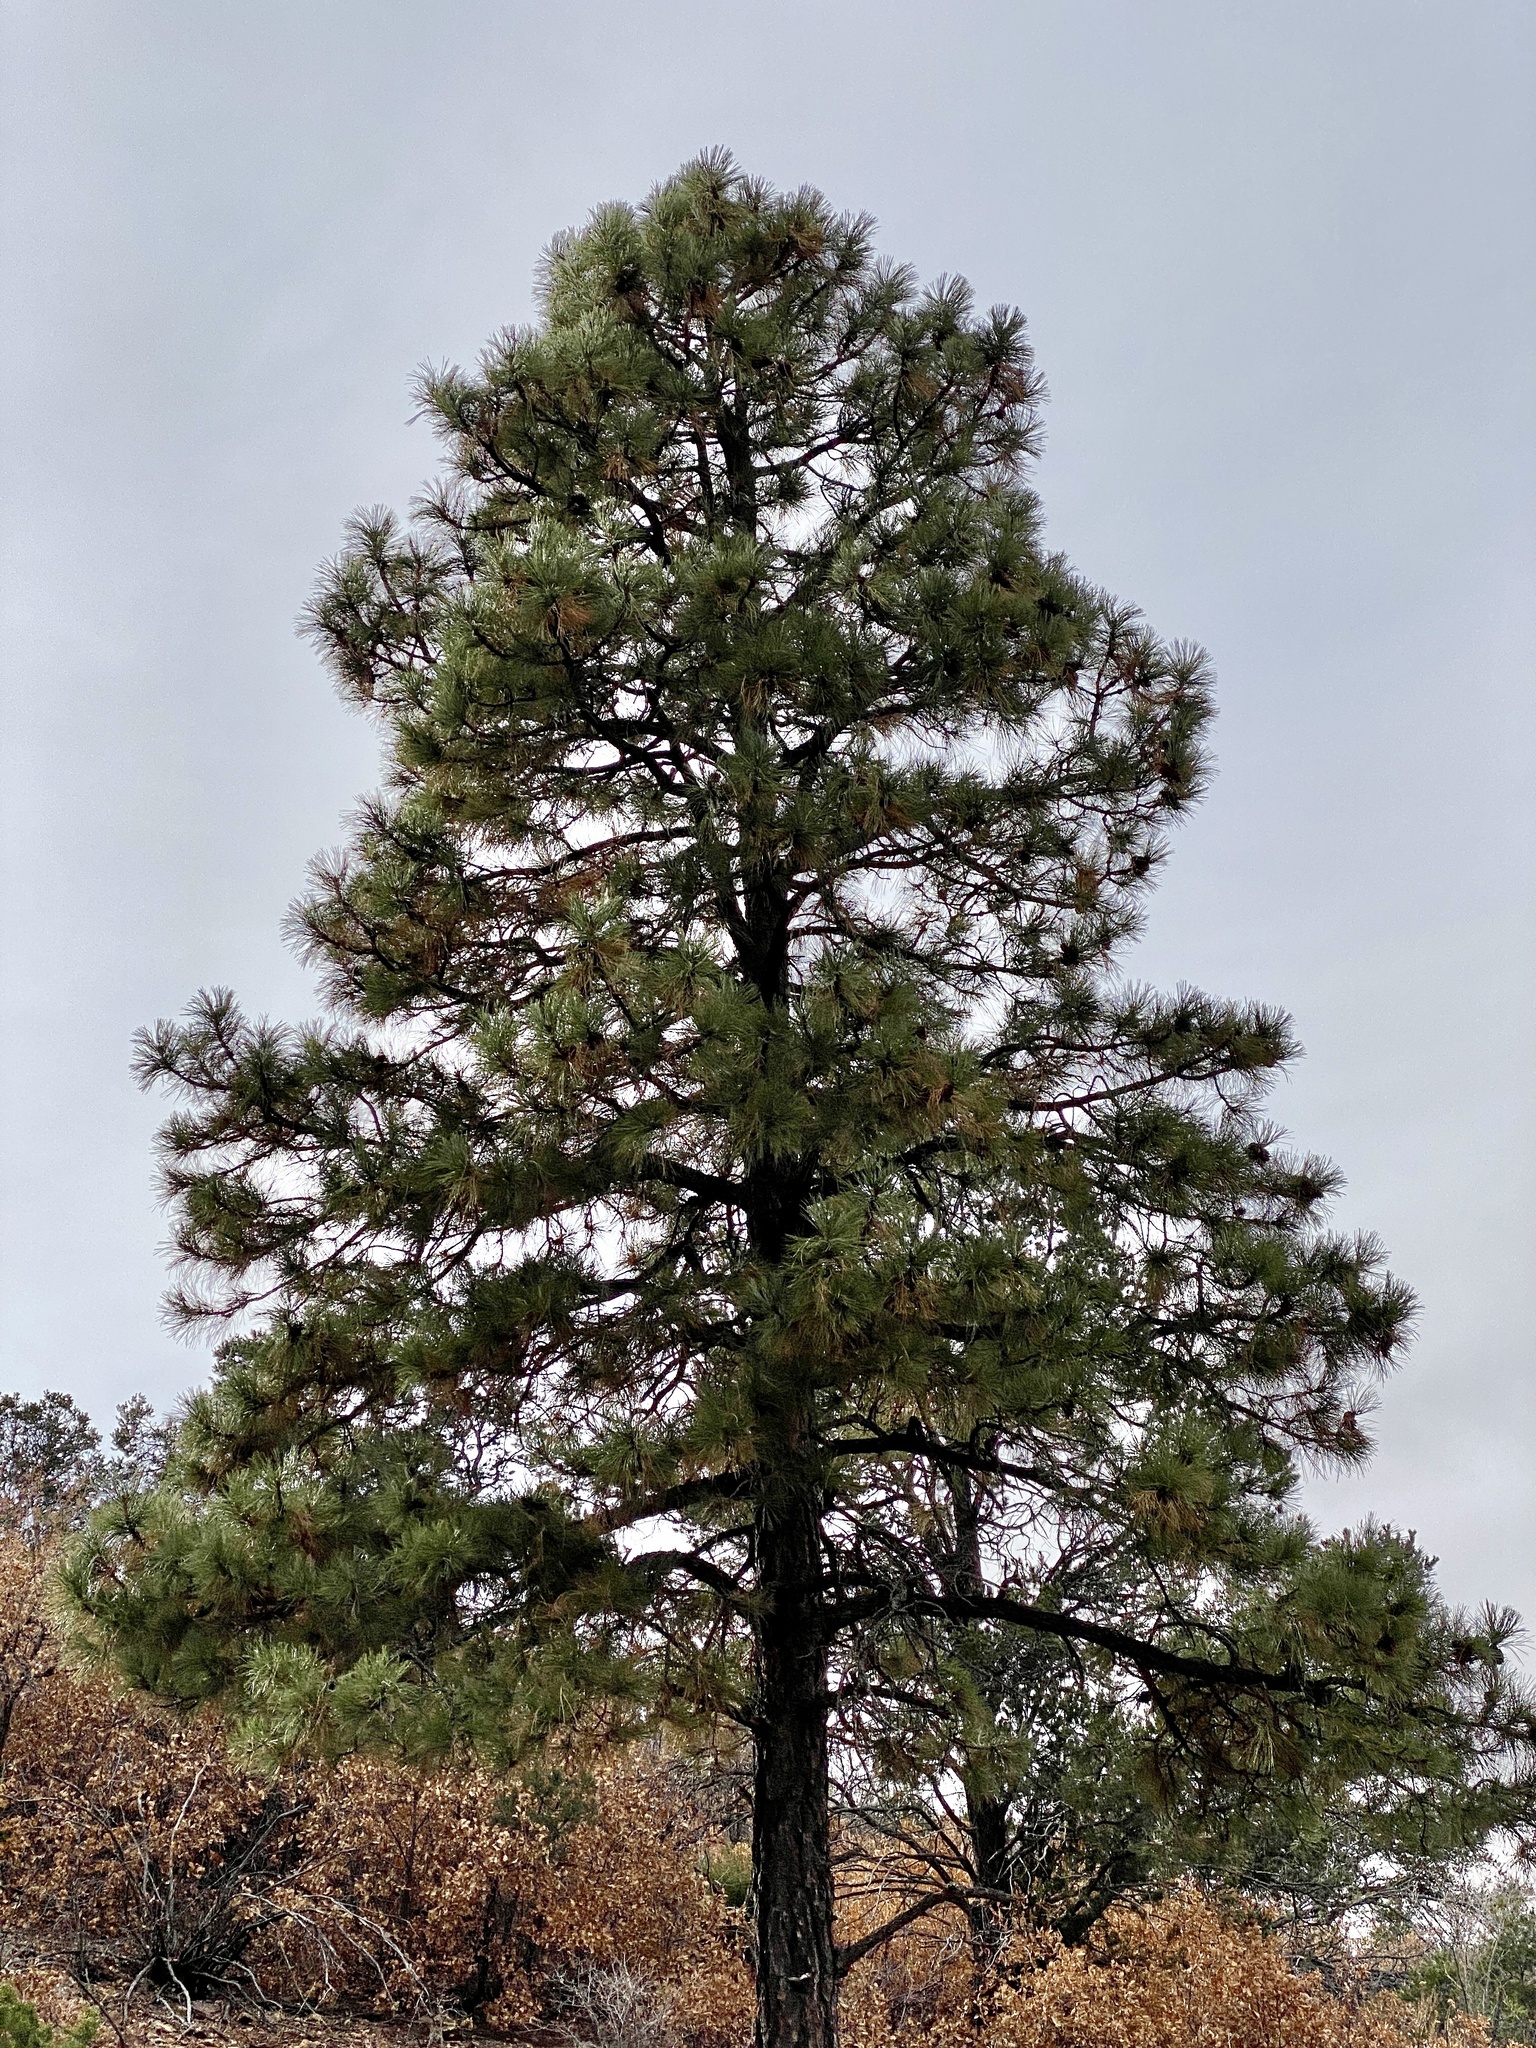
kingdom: Plantae
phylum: Tracheophyta
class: Pinopsida
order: Pinales
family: Pinaceae
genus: Pinus
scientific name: Pinus ponderosa
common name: Western yellow-pine
